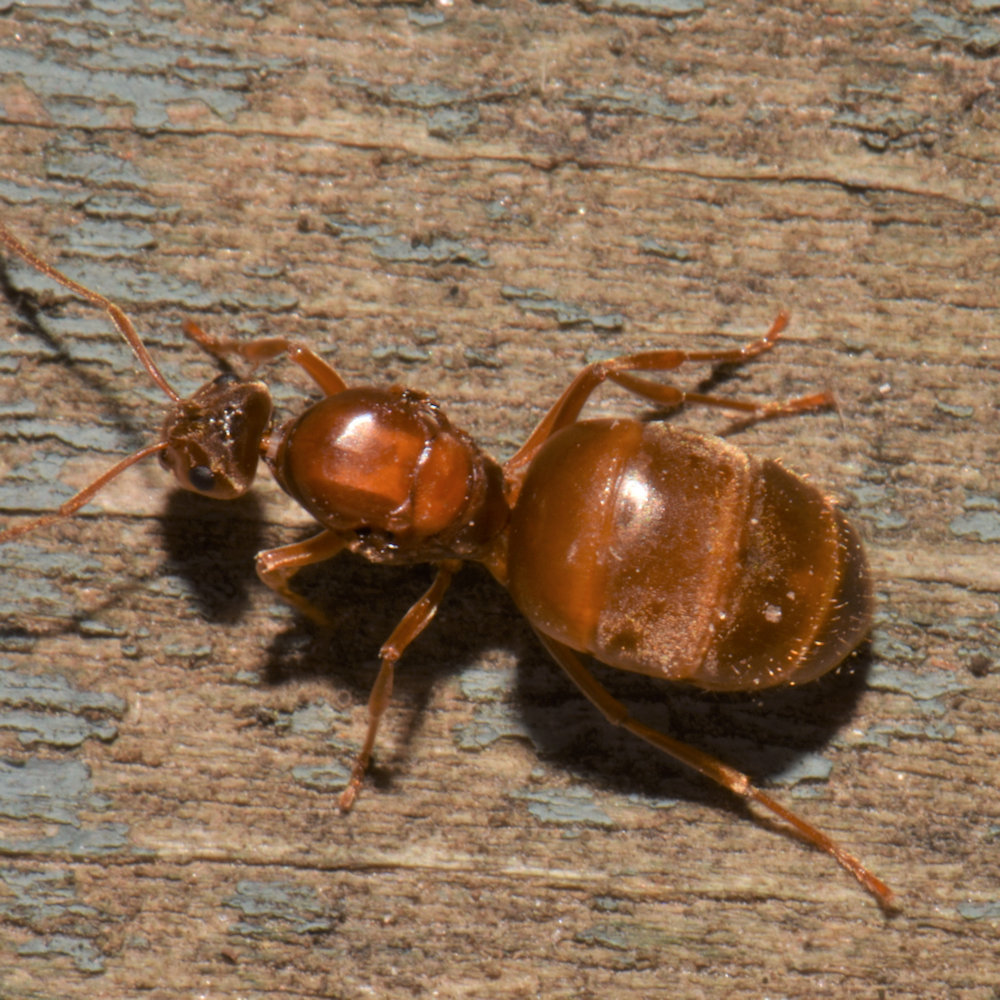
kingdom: Animalia
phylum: Arthropoda
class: Insecta
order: Hymenoptera
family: Formicidae
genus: Prenolepis
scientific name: Prenolepis imparis
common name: Small honey ant
